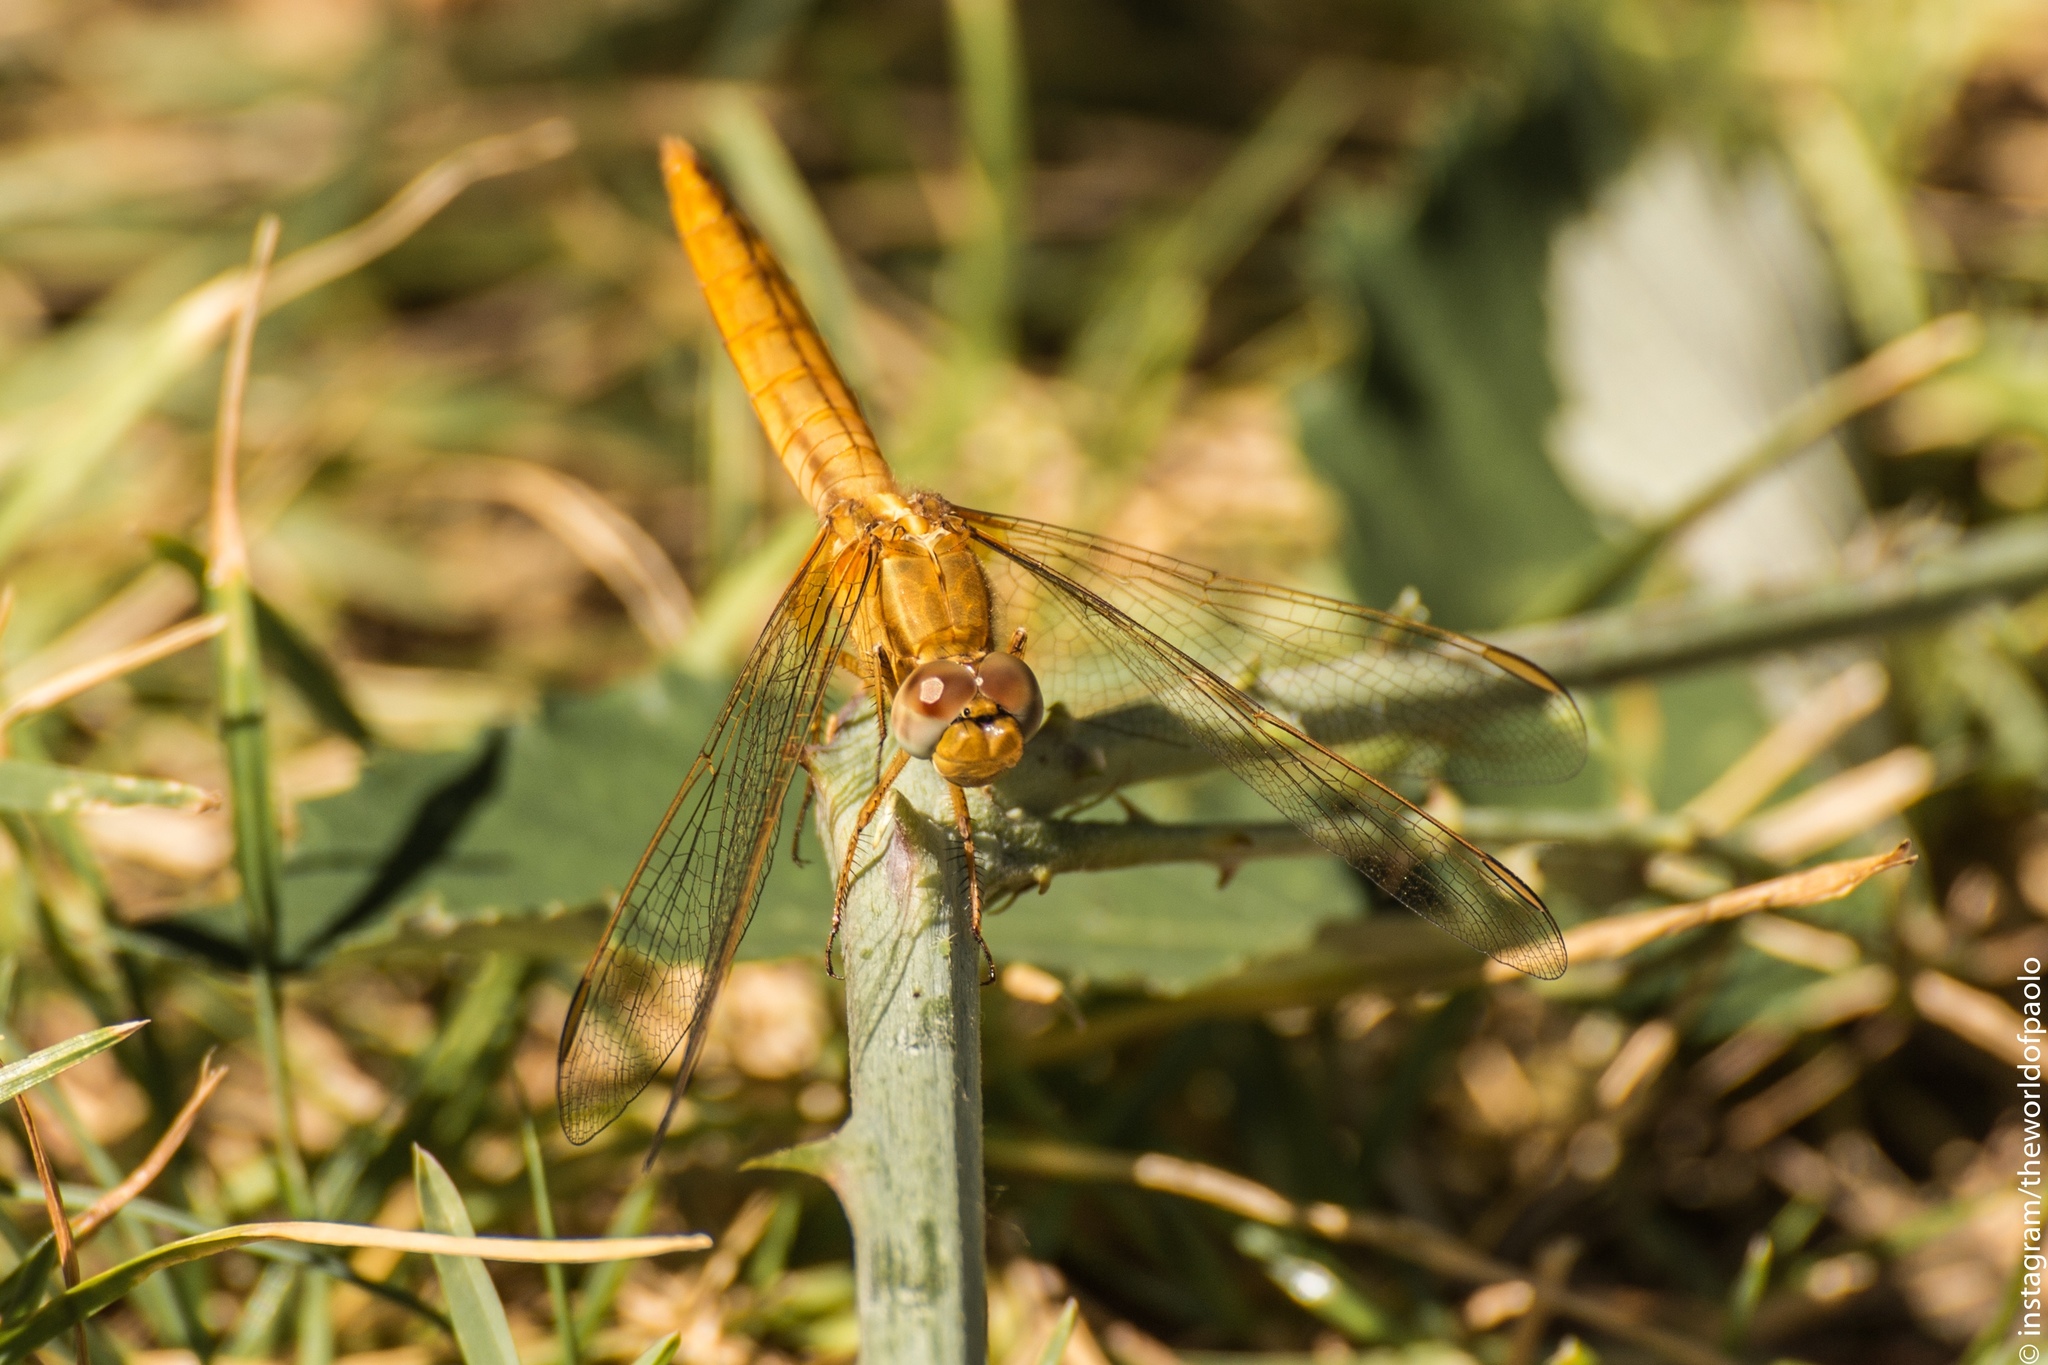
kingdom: Animalia
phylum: Arthropoda
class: Insecta
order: Odonata
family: Libellulidae
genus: Crocothemis
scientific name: Crocothemis erythraea
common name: Scarlet dragonfly
